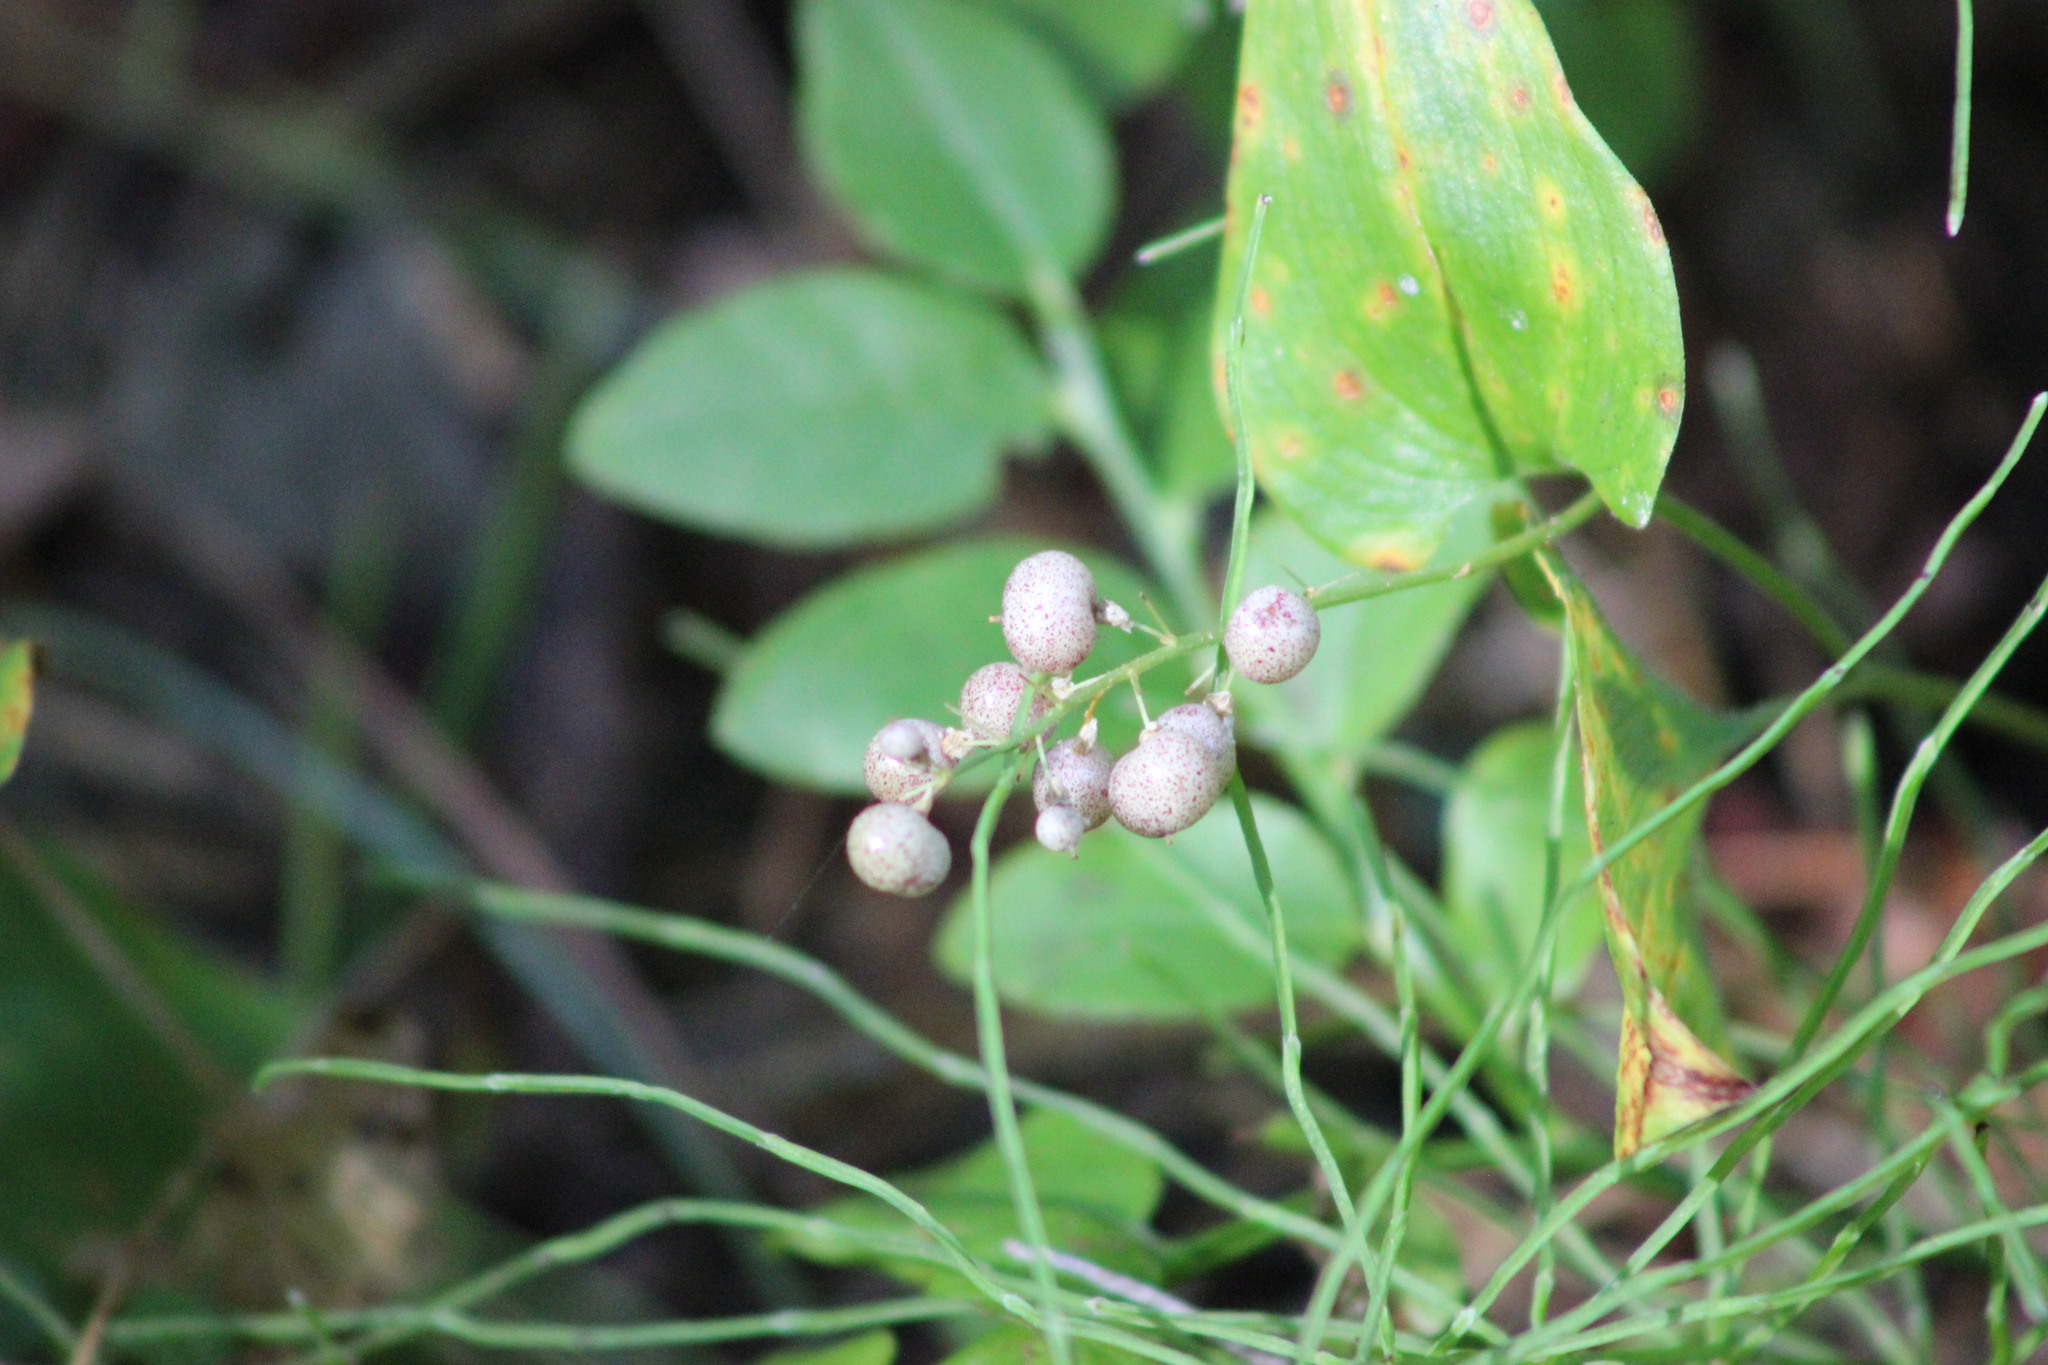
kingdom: Plantae
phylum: Tracheophyta
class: Liliopsida
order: Asparagales
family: Asparagaceae
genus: Maianthemum
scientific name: Maianthemum bifolium
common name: May lily
